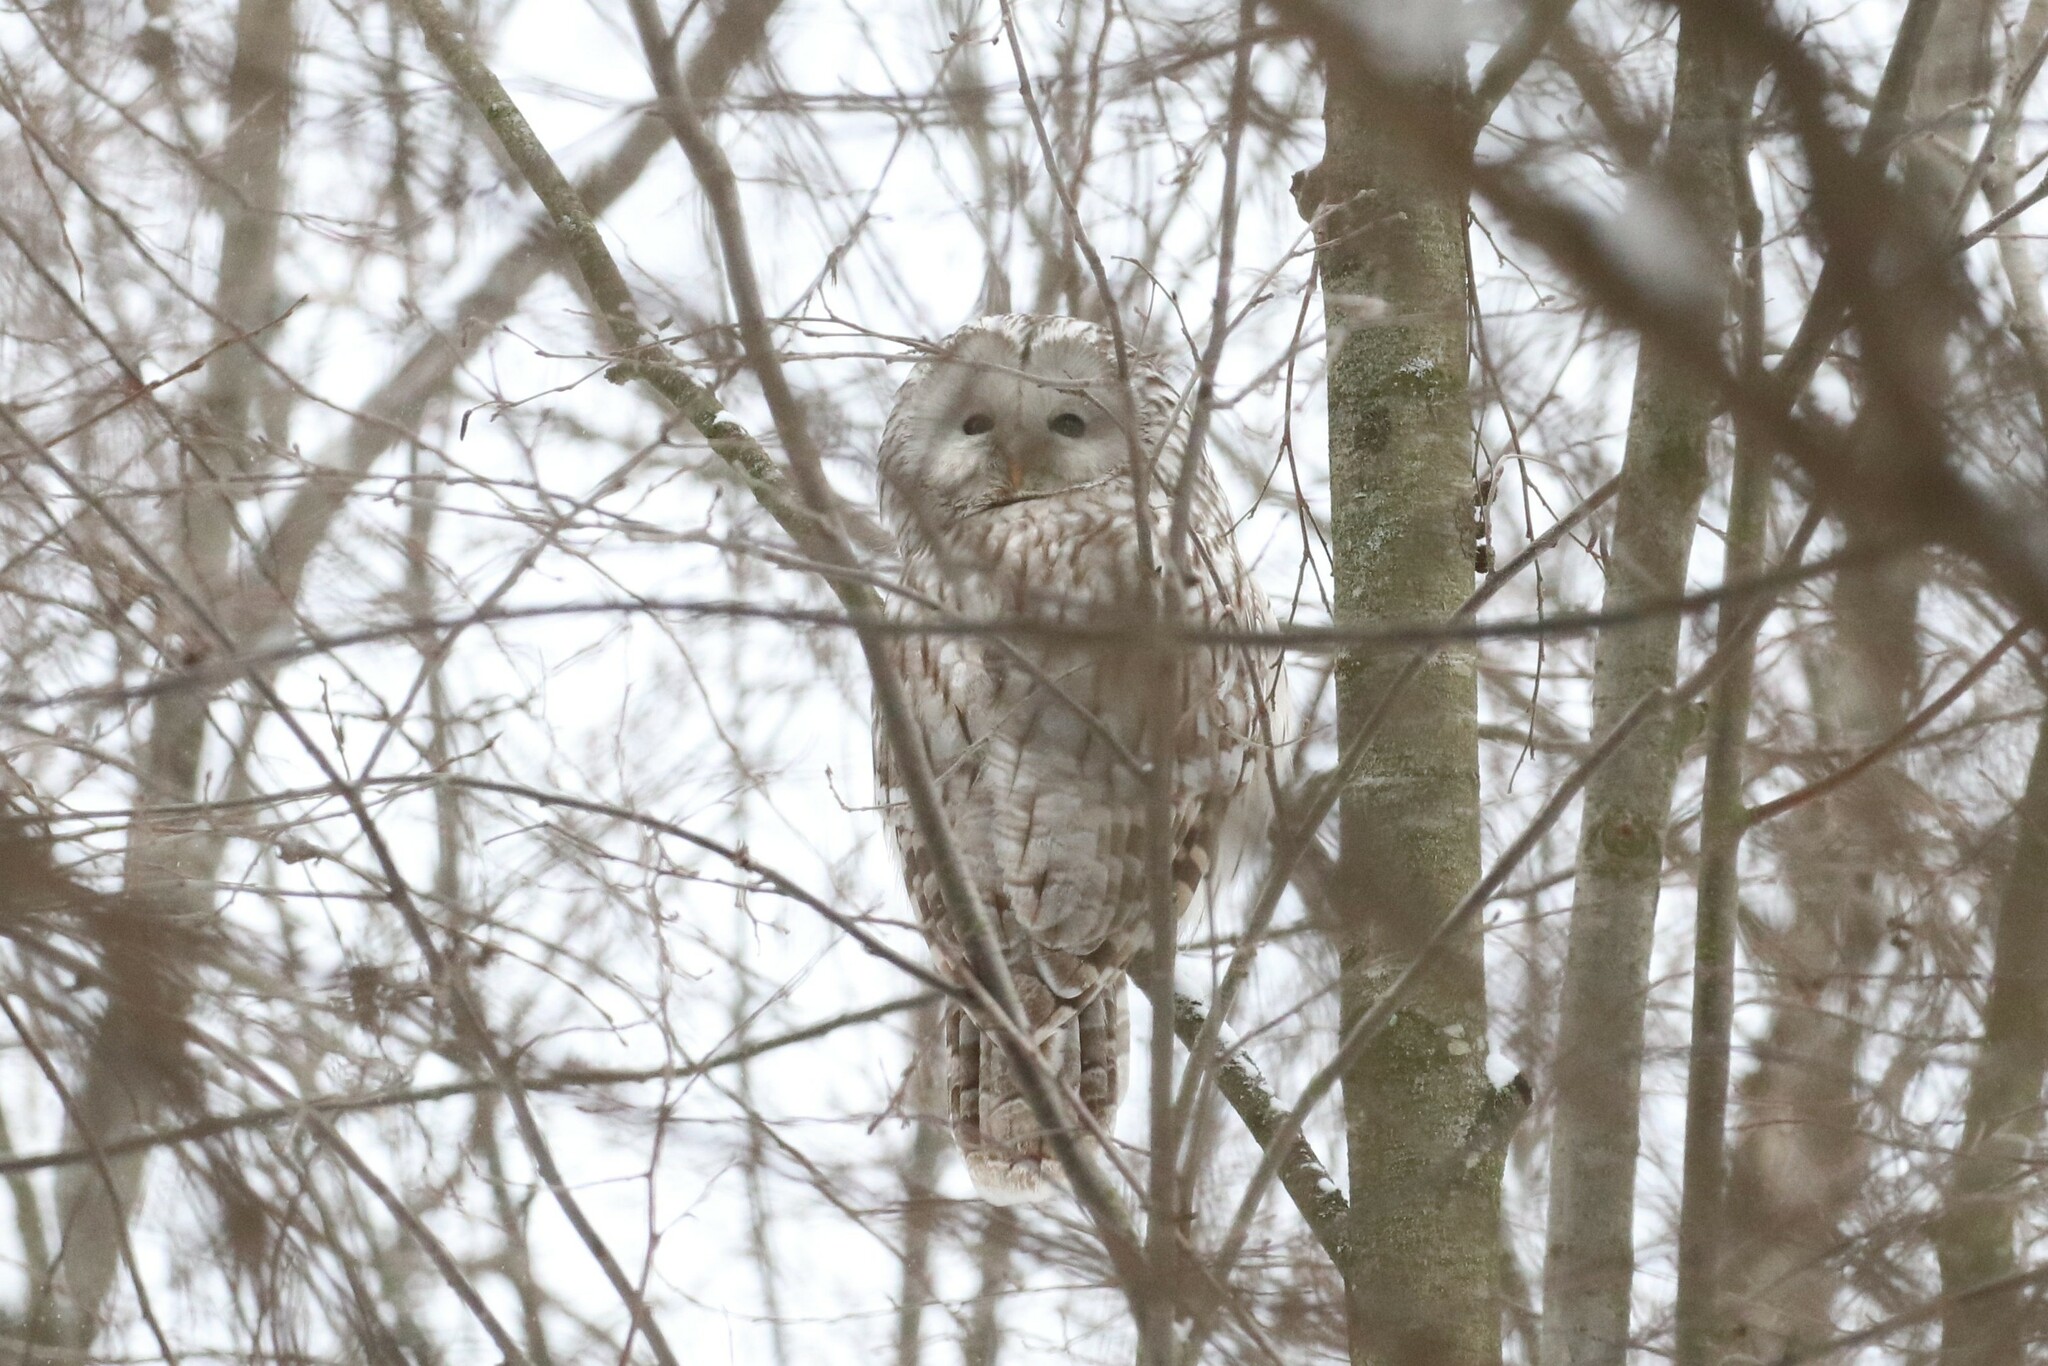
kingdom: Animalia
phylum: Chordata
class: Aves
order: Strigiformes
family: Strigidae
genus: Strix
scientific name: Strix uralensis
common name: Ural owl
